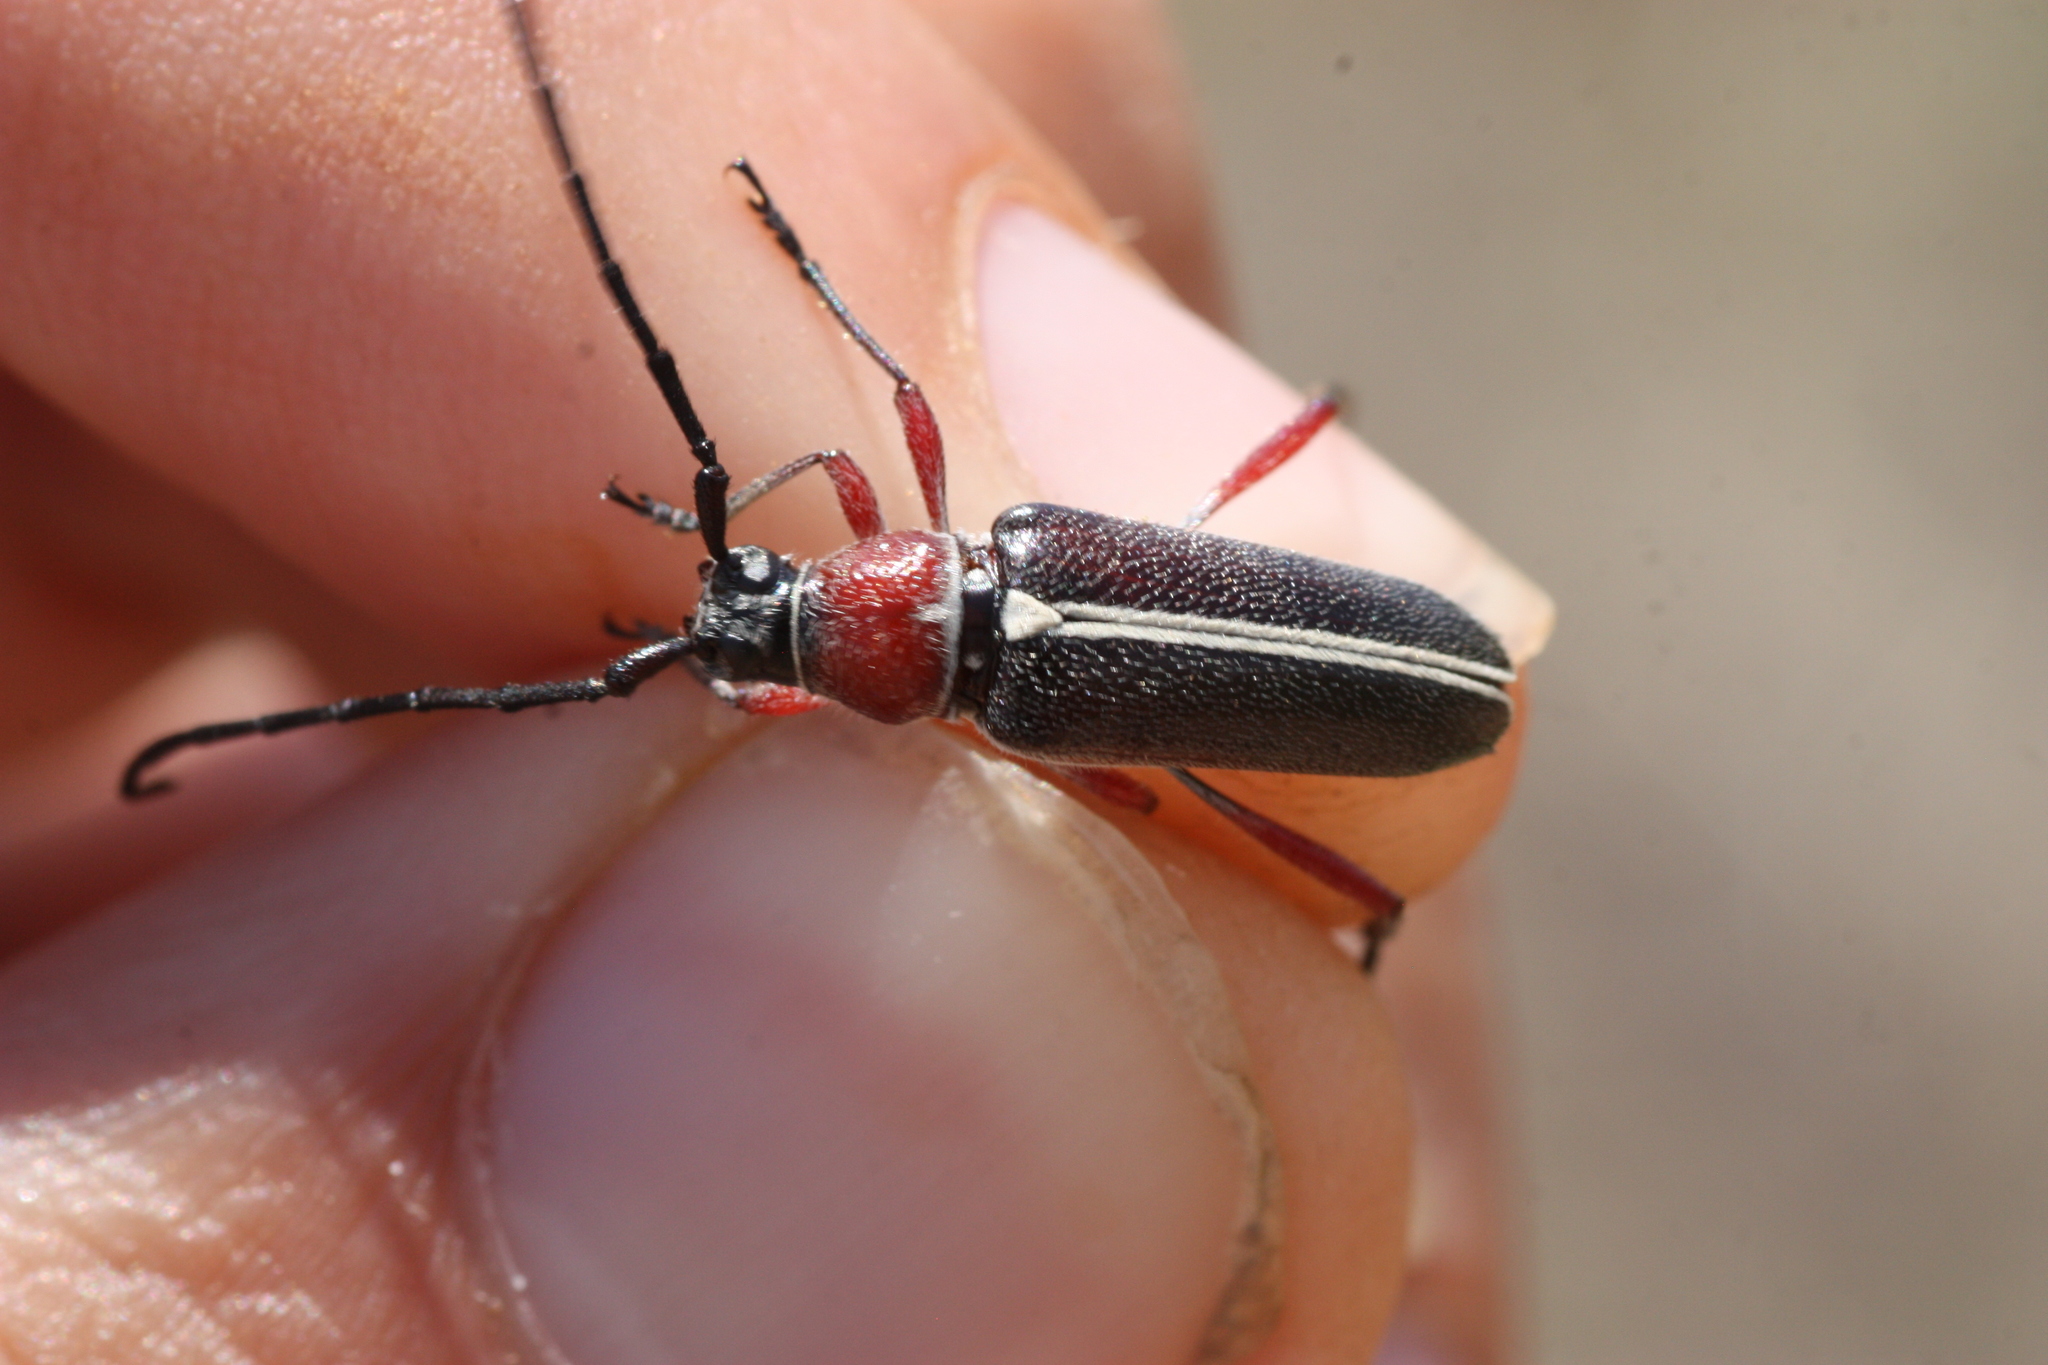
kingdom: Animalia
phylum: Arthropoda
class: Insecta
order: Coleoptera
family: Cerambycidae
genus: Plionoma
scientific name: Plionoma suturalis
